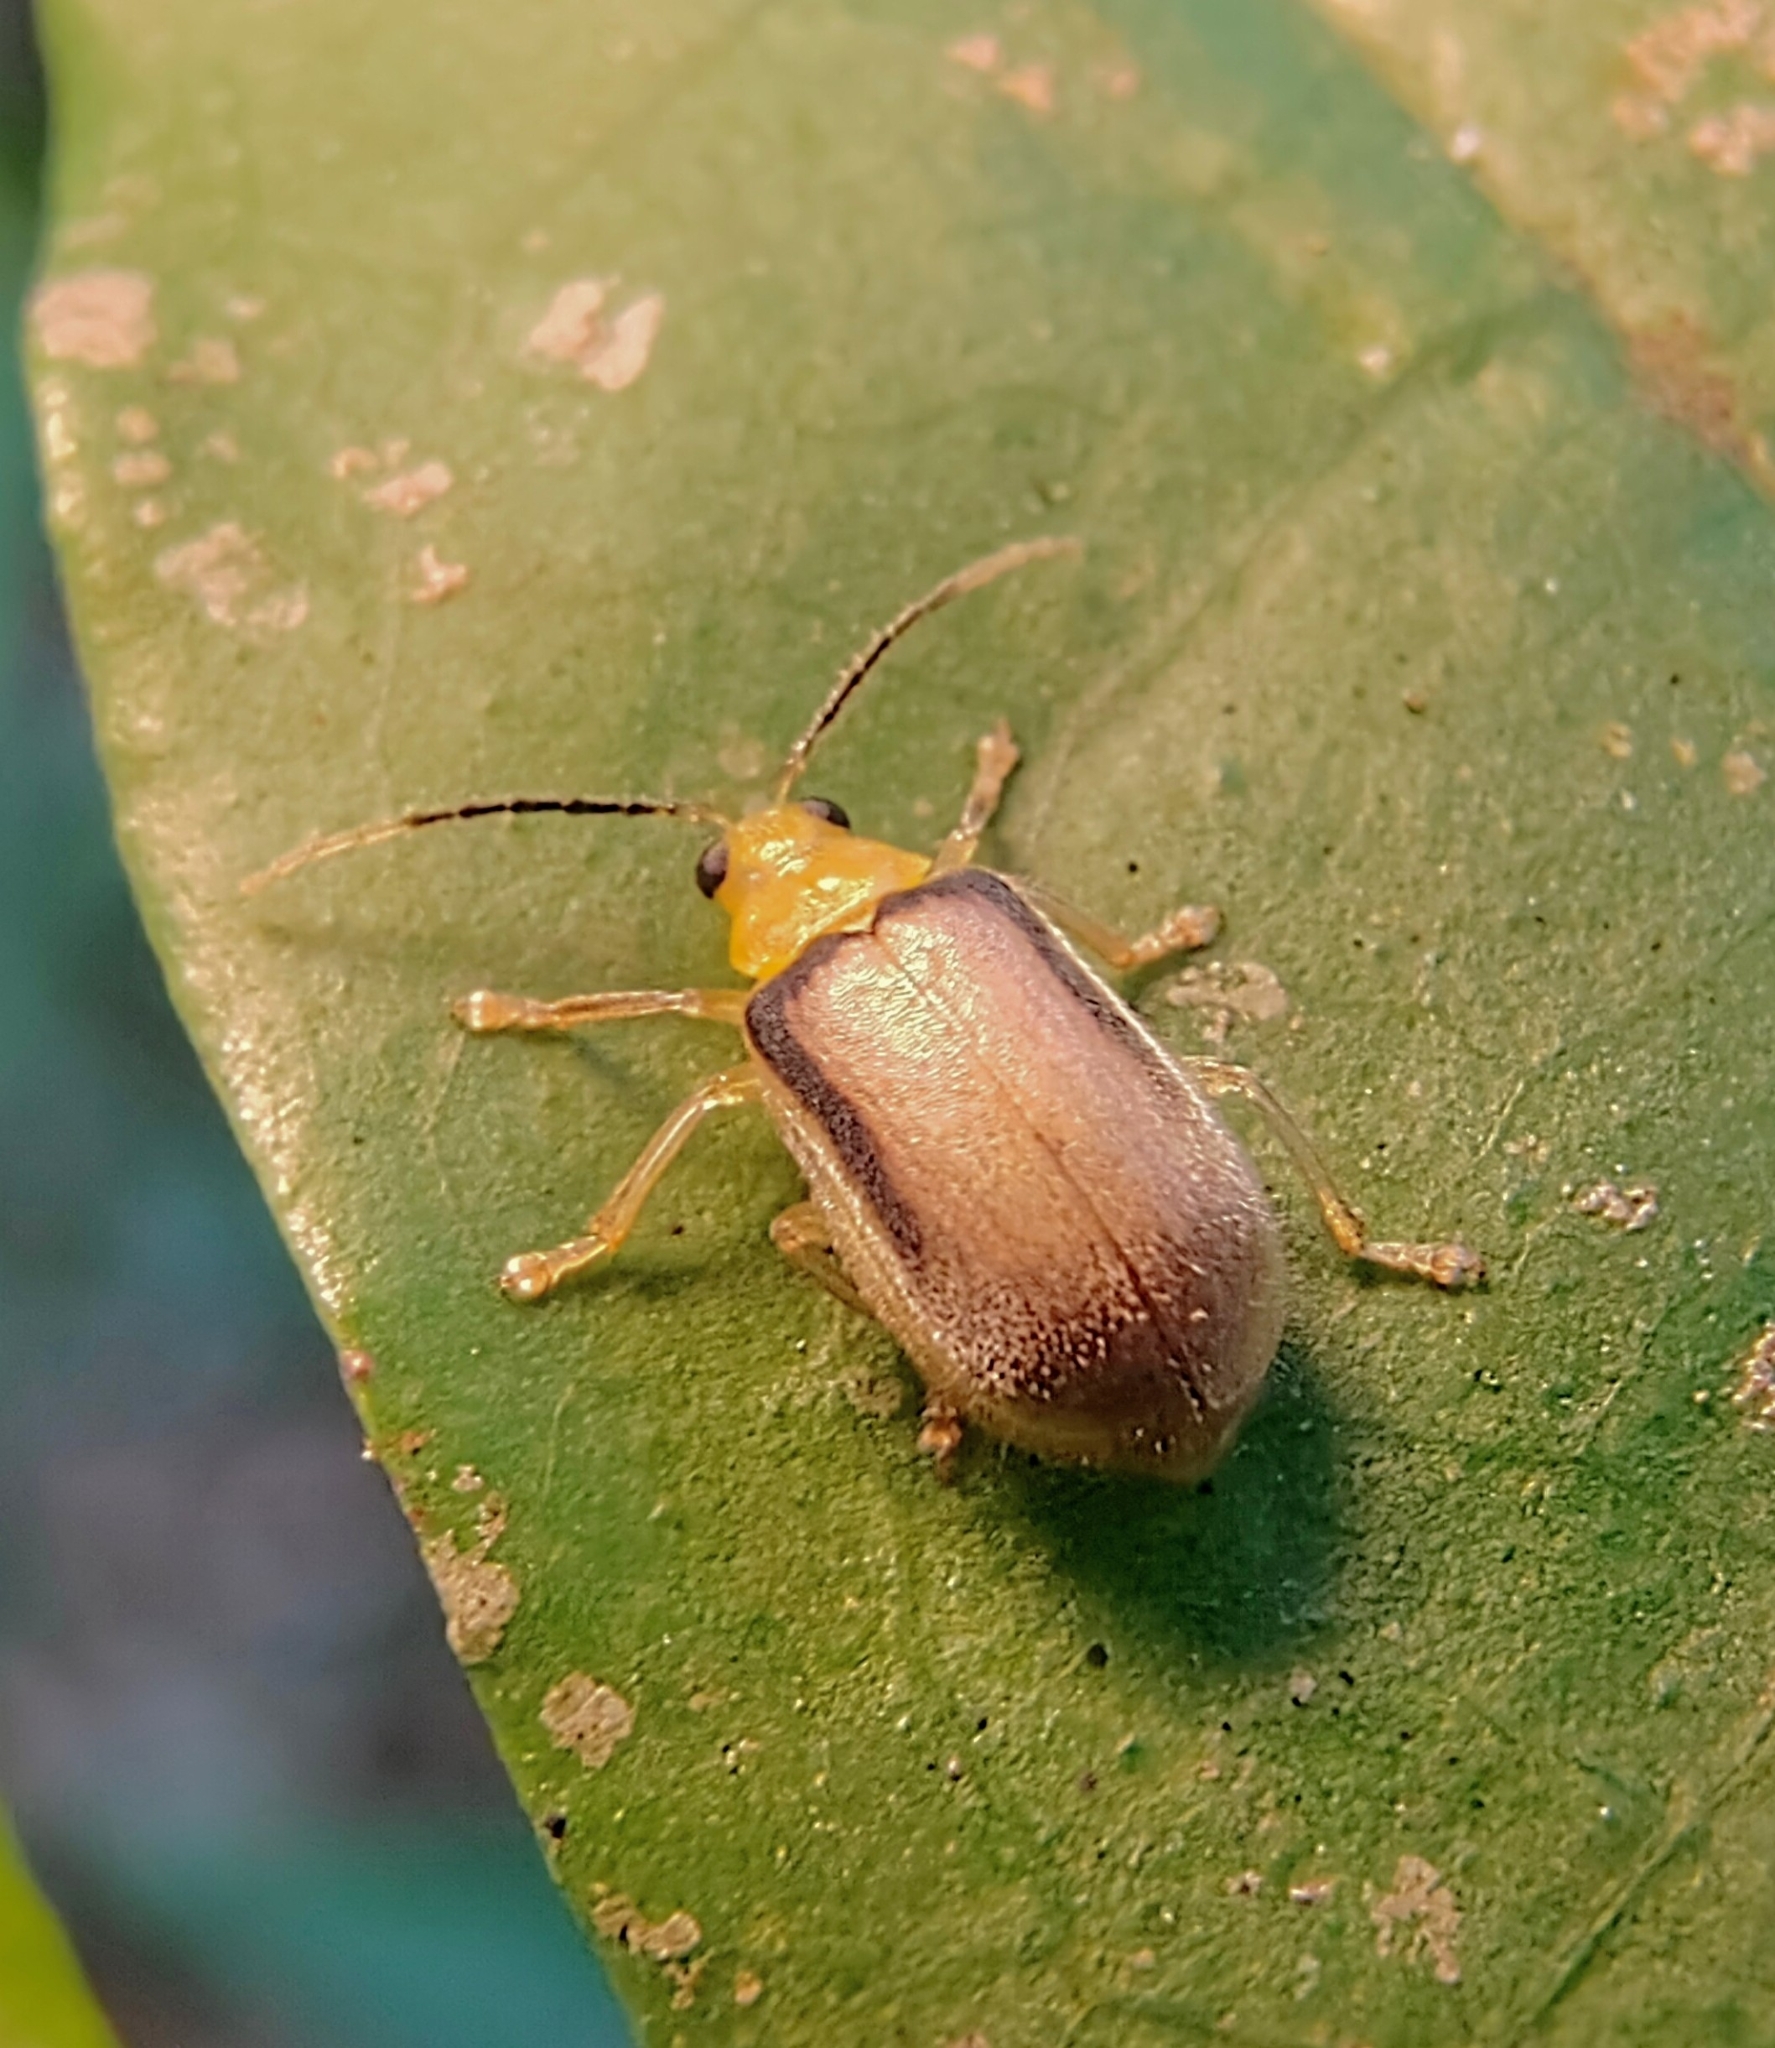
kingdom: Animalia
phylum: Arthropoda
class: Insecta
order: Coleoptera
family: Chrysomelidae
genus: Galerosastra
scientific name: Galerosastra
